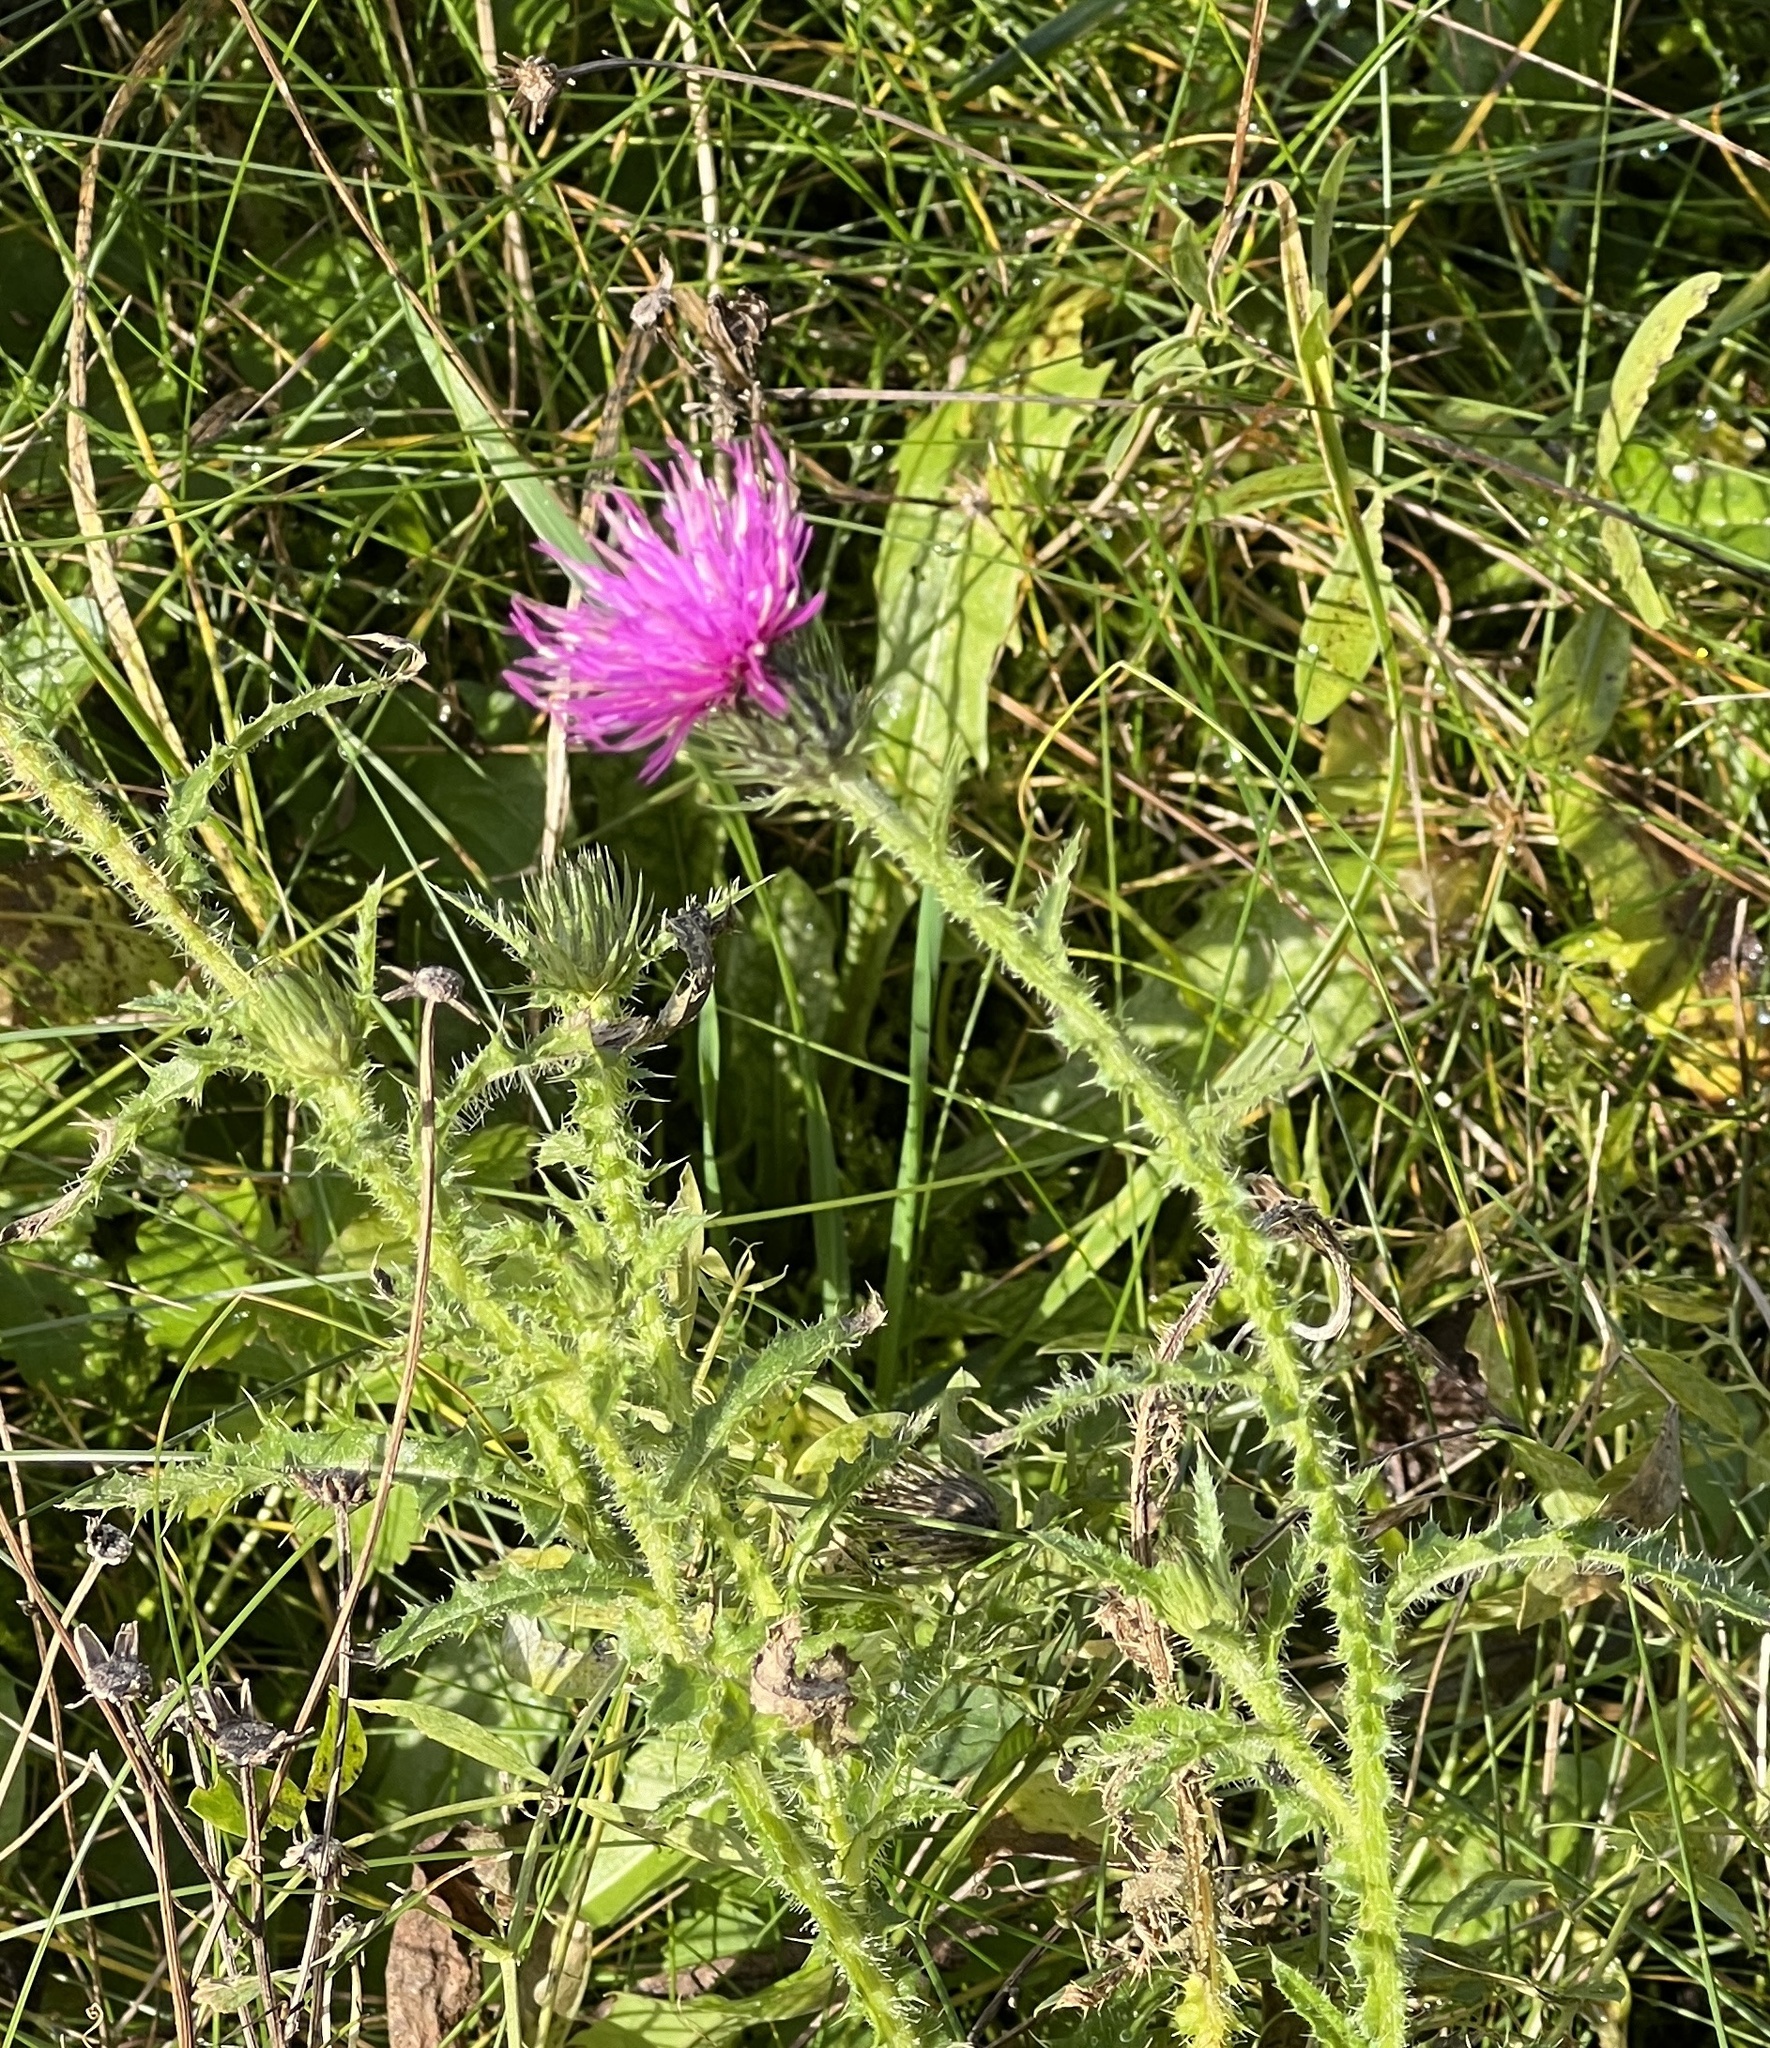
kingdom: Plantae
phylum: Tracheophyta
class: Magnoliopsida
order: Asterales
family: Asteraceae
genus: Carduus
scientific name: Carduus acanthoides
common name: Plumeless thistle
